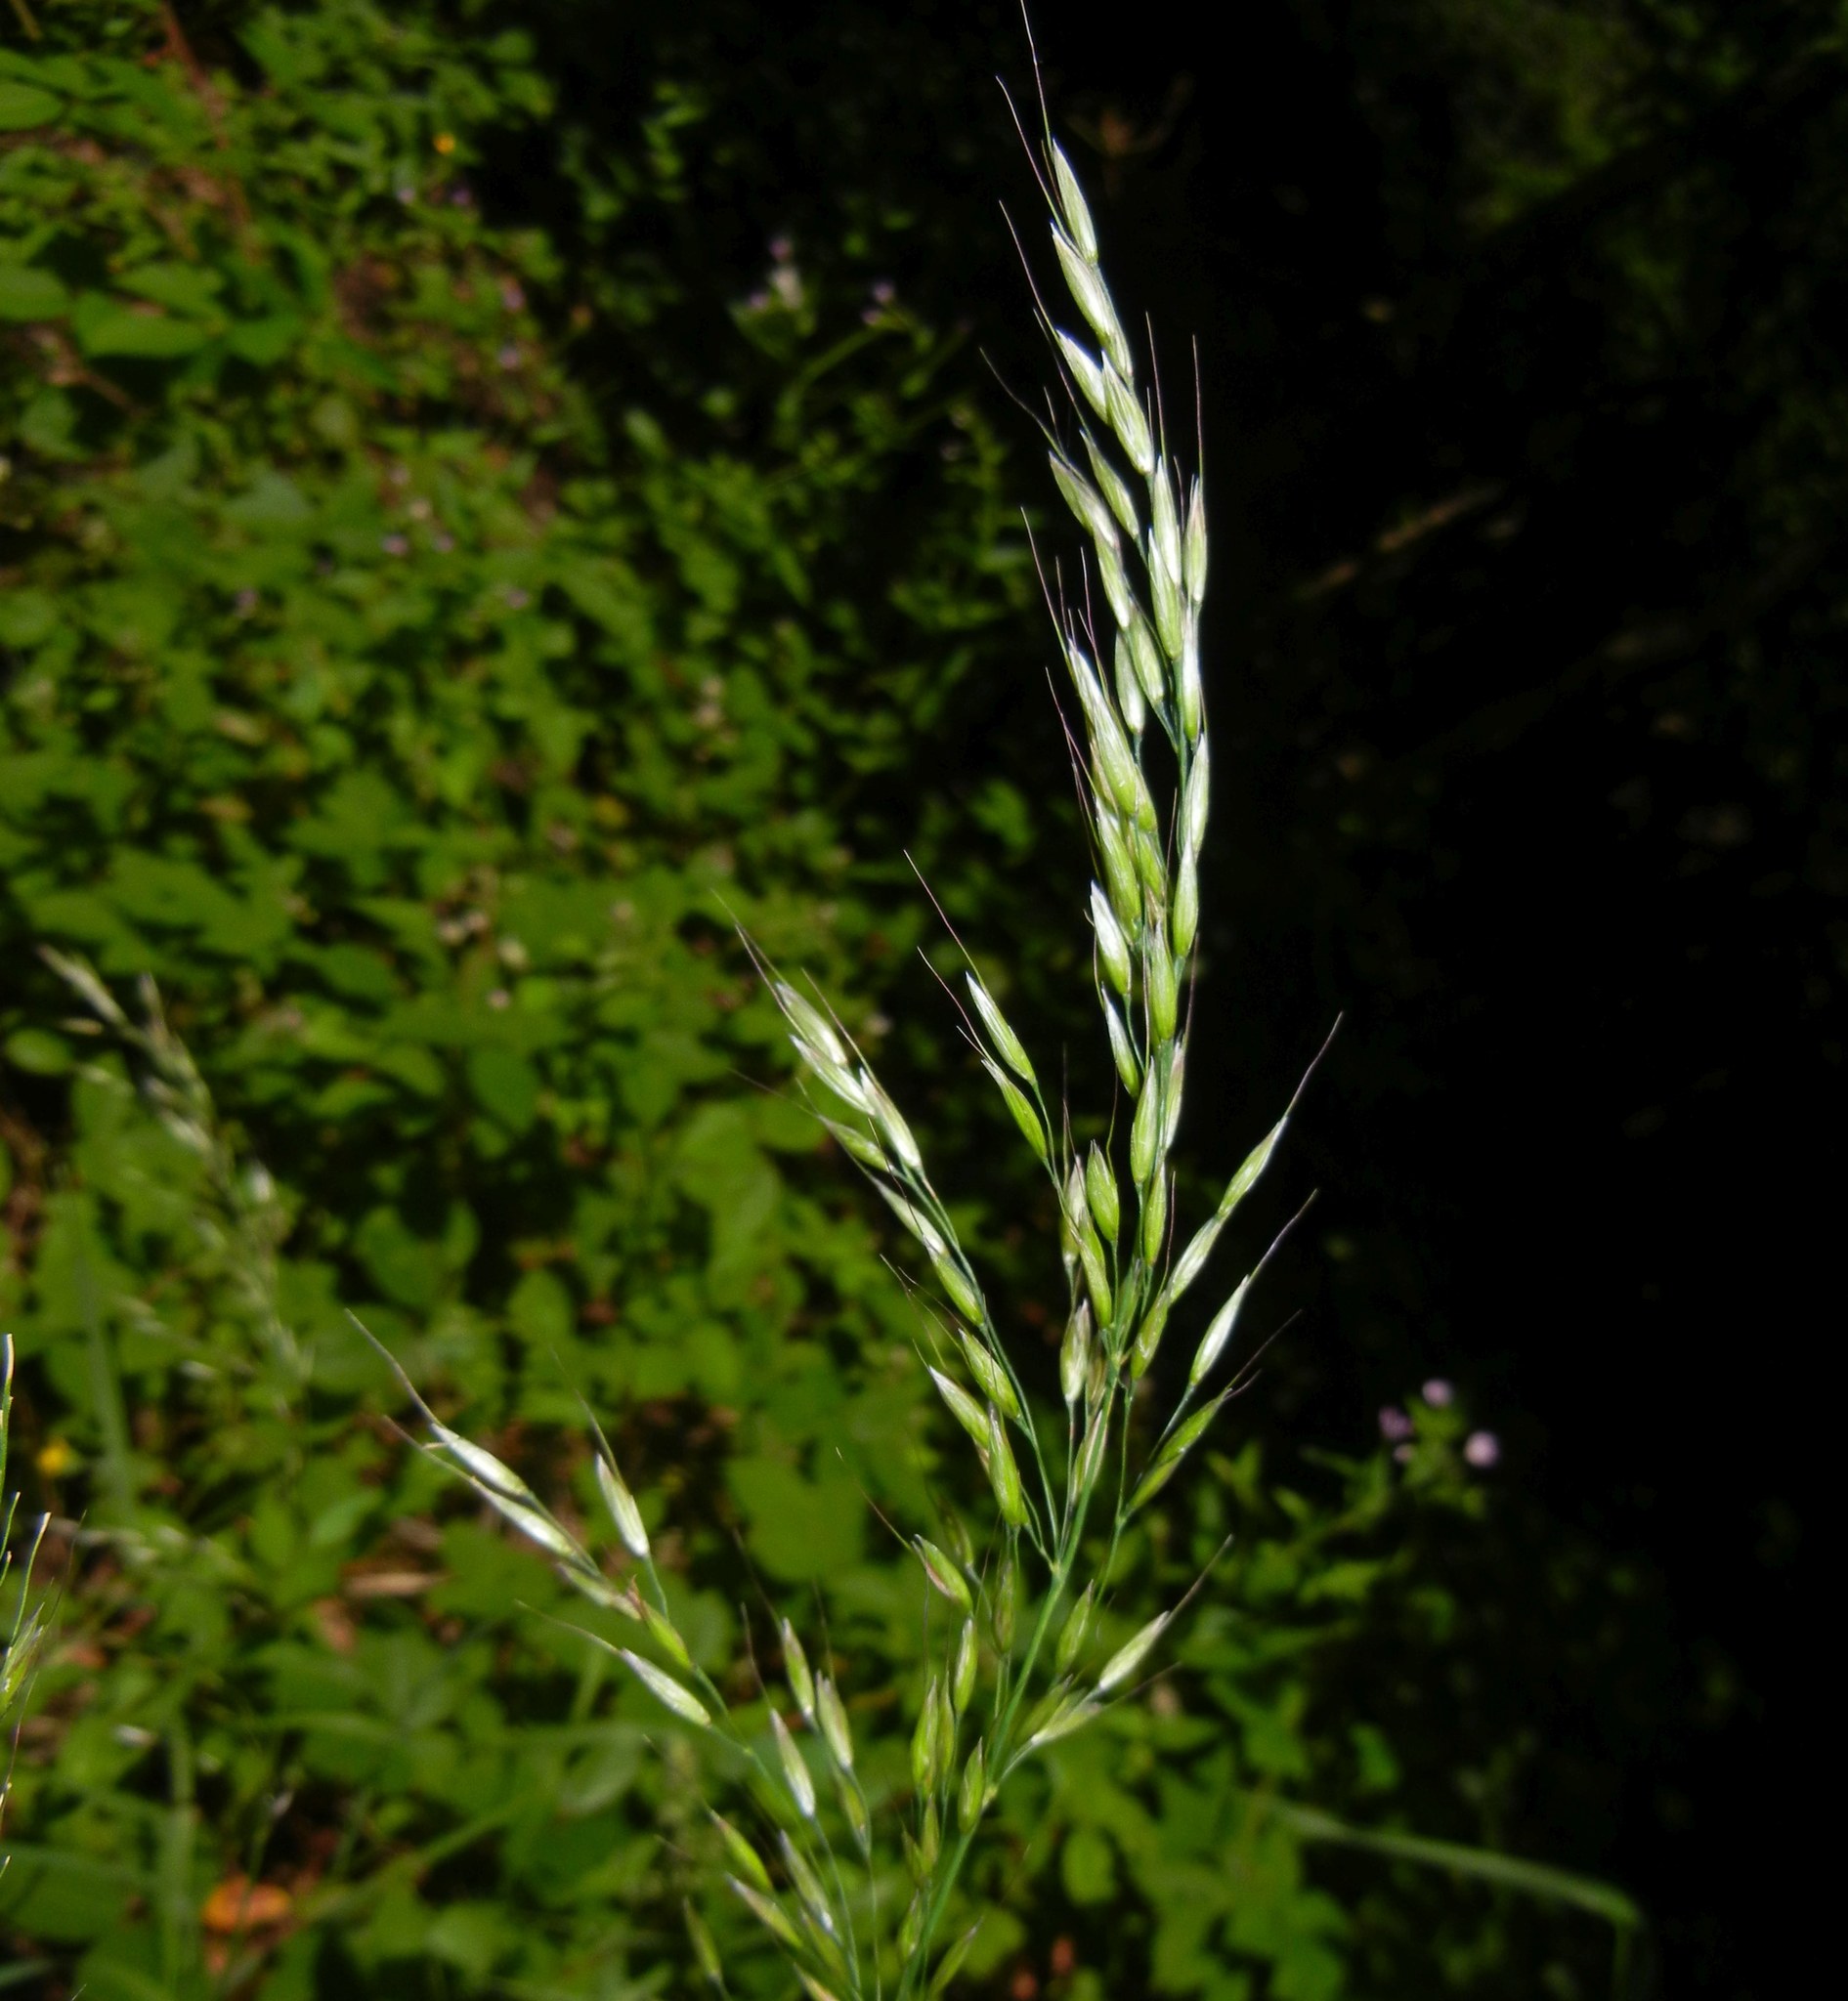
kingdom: Plantae
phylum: Tracheophyta
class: Liliopsida
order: Poales
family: Poaceae
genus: Arrhenatherum
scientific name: Arrhenatherum elatius
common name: Tall oatgrass
